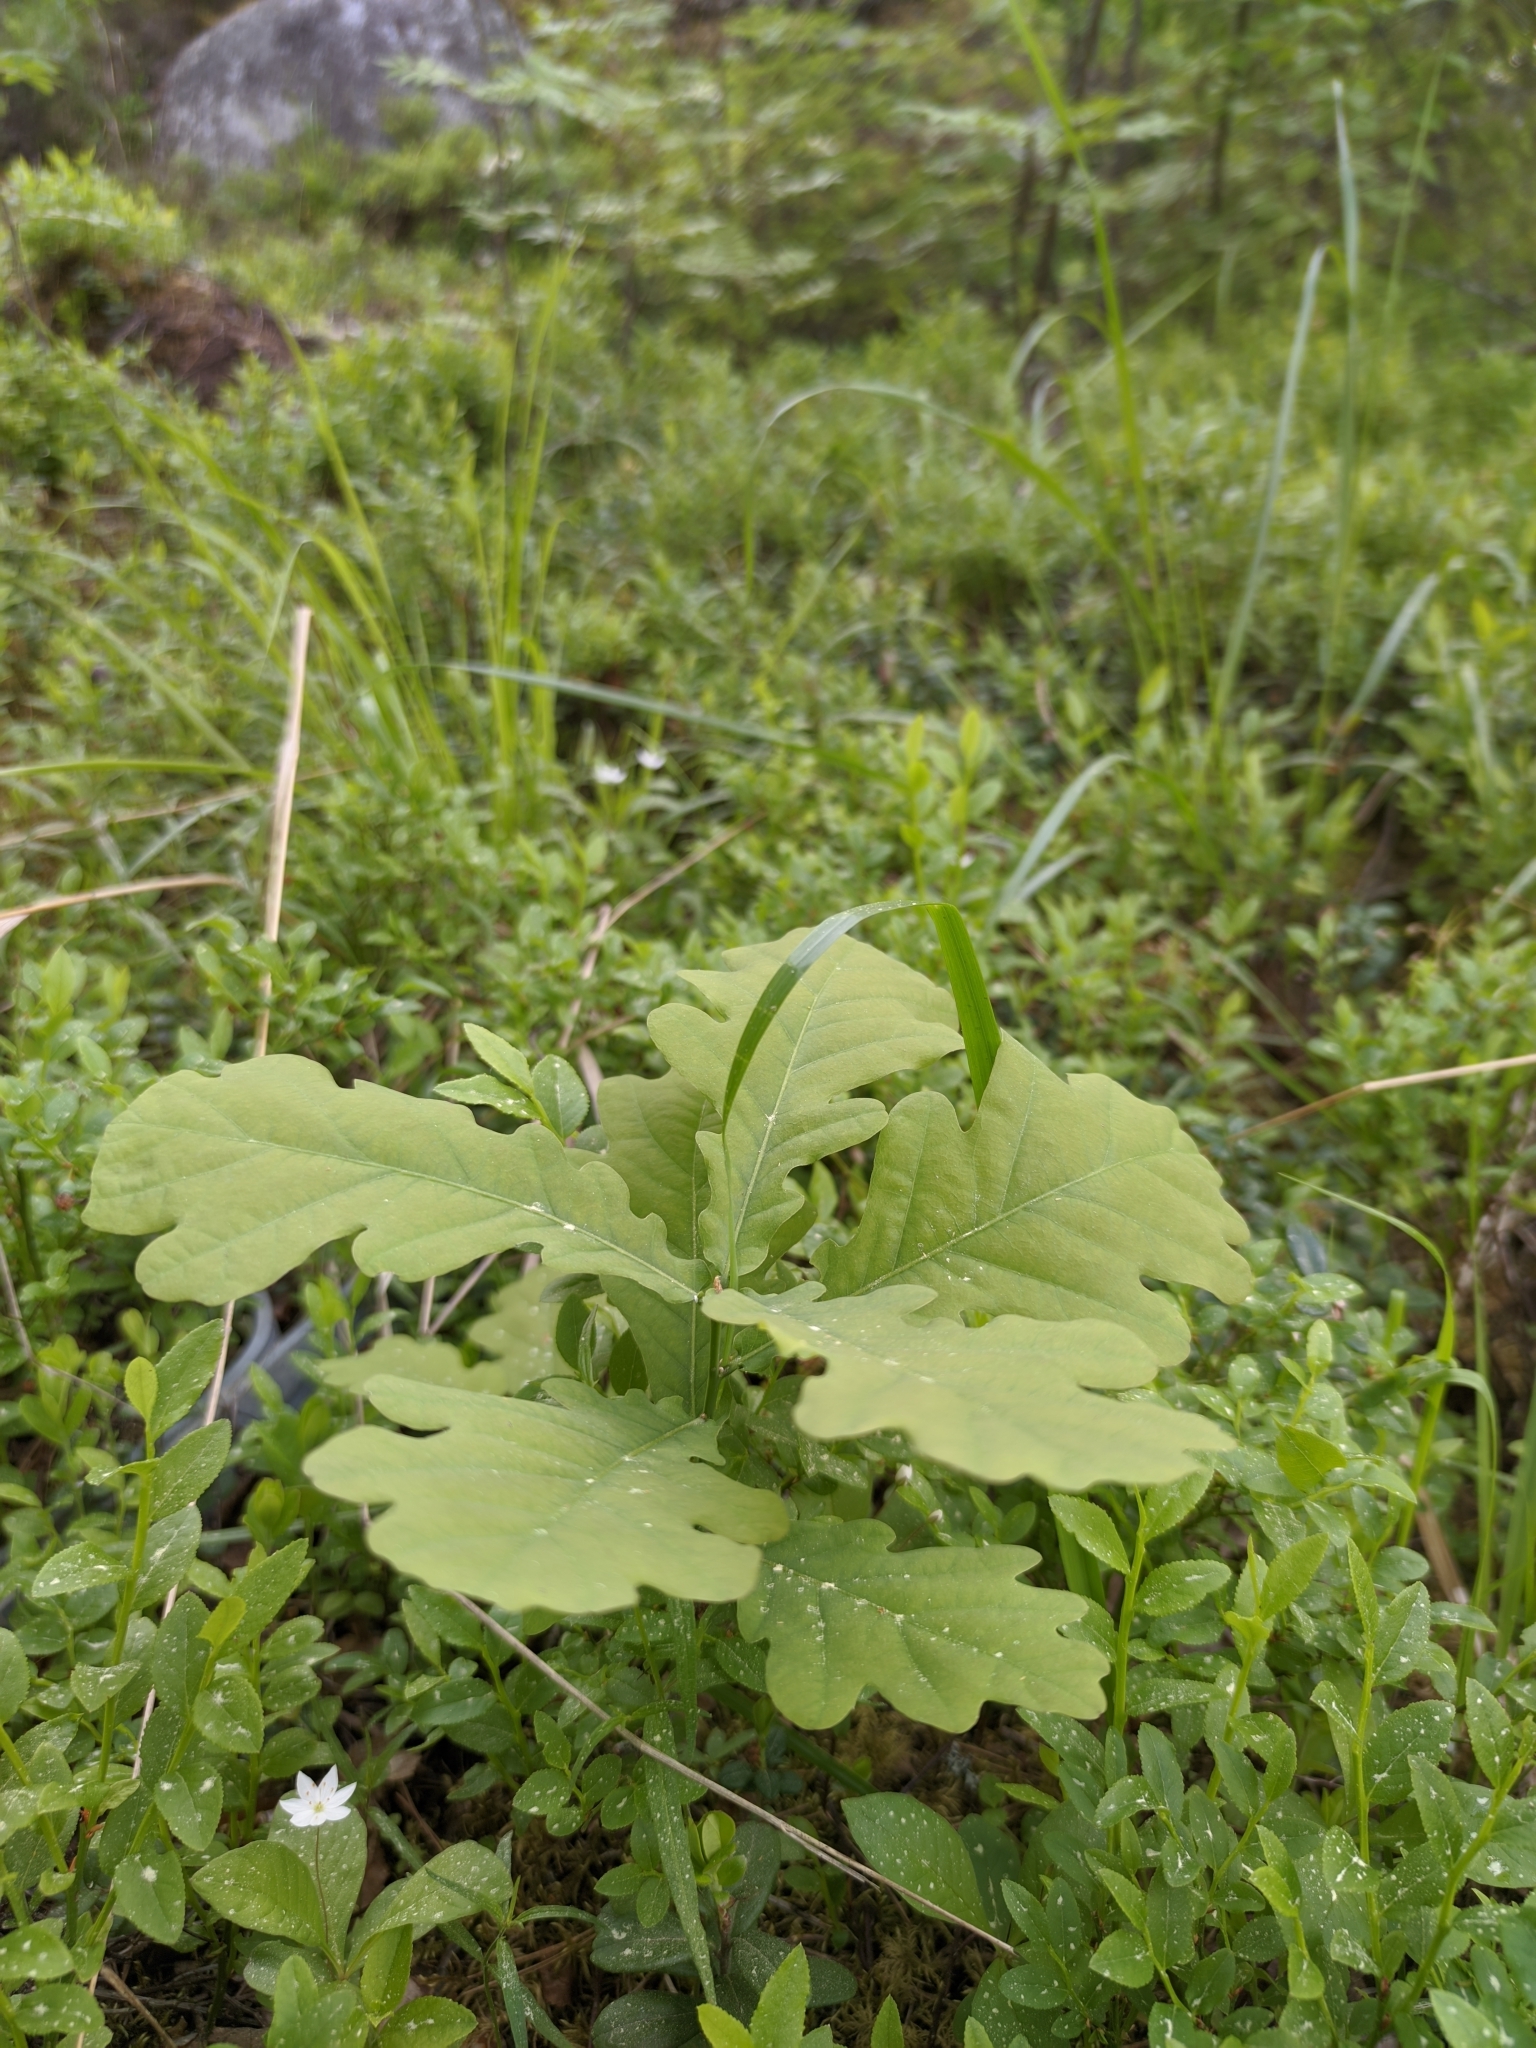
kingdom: Plantae
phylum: Tracheophyta
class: Magnoliopsida
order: Fagales
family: Fagaceae
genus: Quercus
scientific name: Quercus robur
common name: Pedunculate oak
